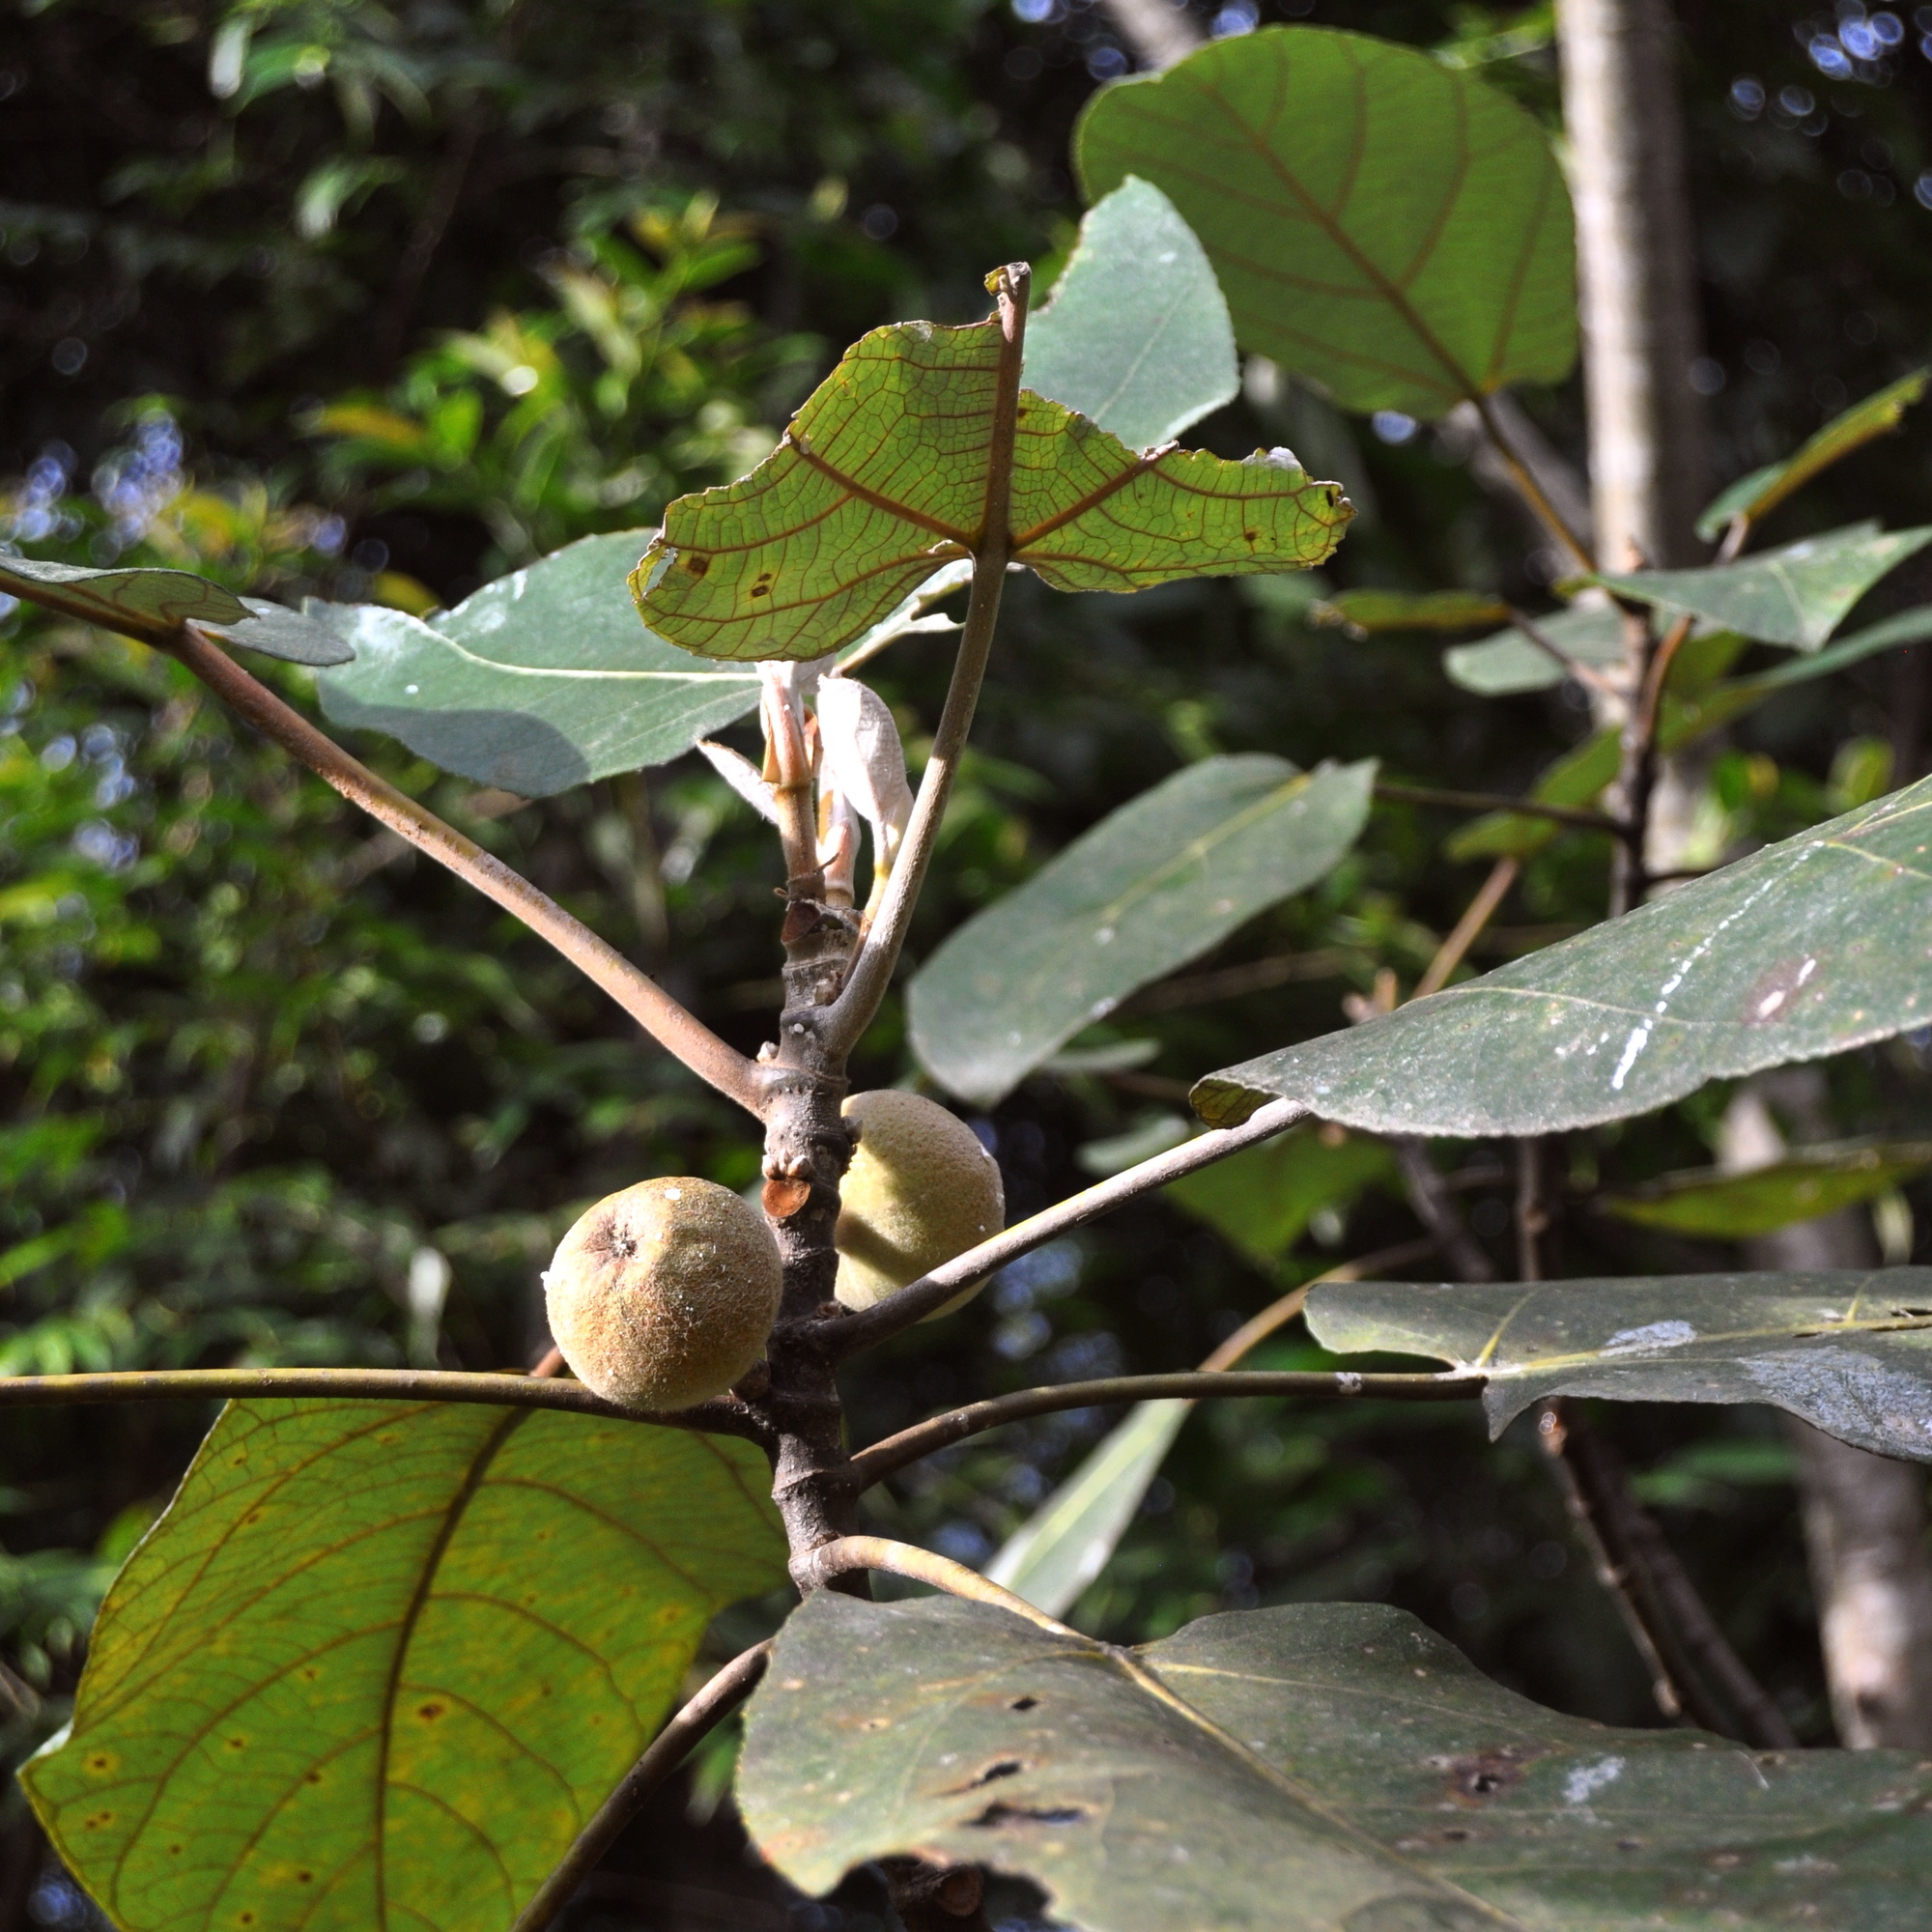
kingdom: Plantae
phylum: Tracheophyta
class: Magnoliopsida
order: Rosales
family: Moraceae
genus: Ficus
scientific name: Ficus padana
